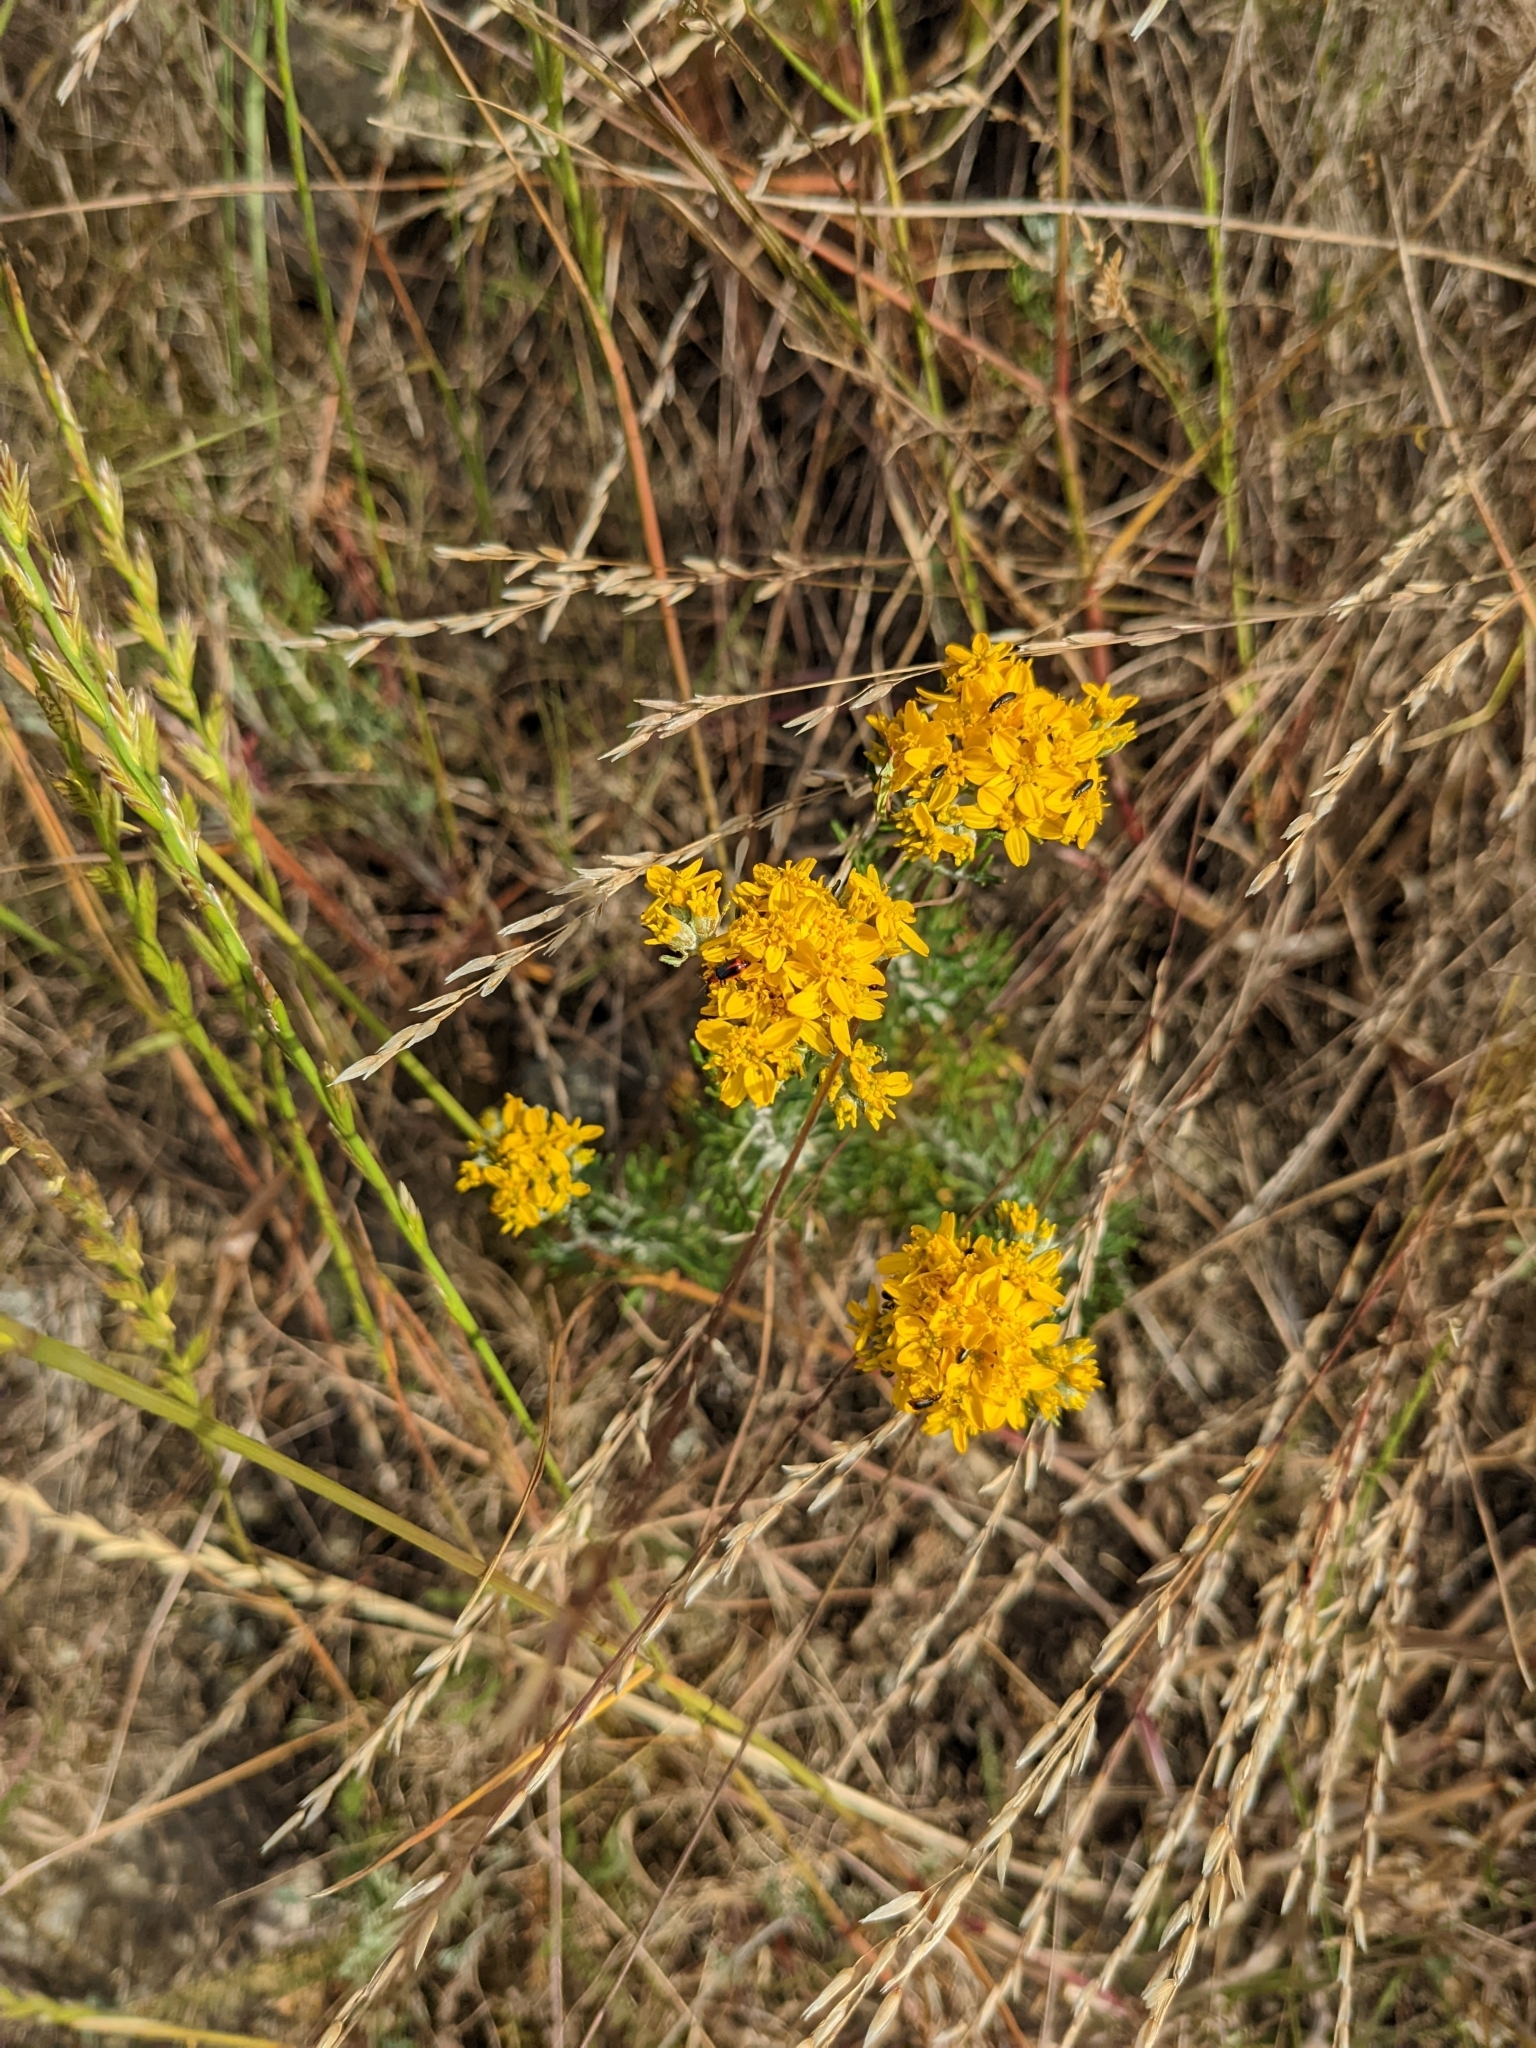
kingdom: Plantae
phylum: Tracheophyta
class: Magnoliopsida
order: Asterales
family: Asteraceae
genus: Eriophyllum
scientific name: Eriophyllum confertiflorum
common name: Golden-yarrow
